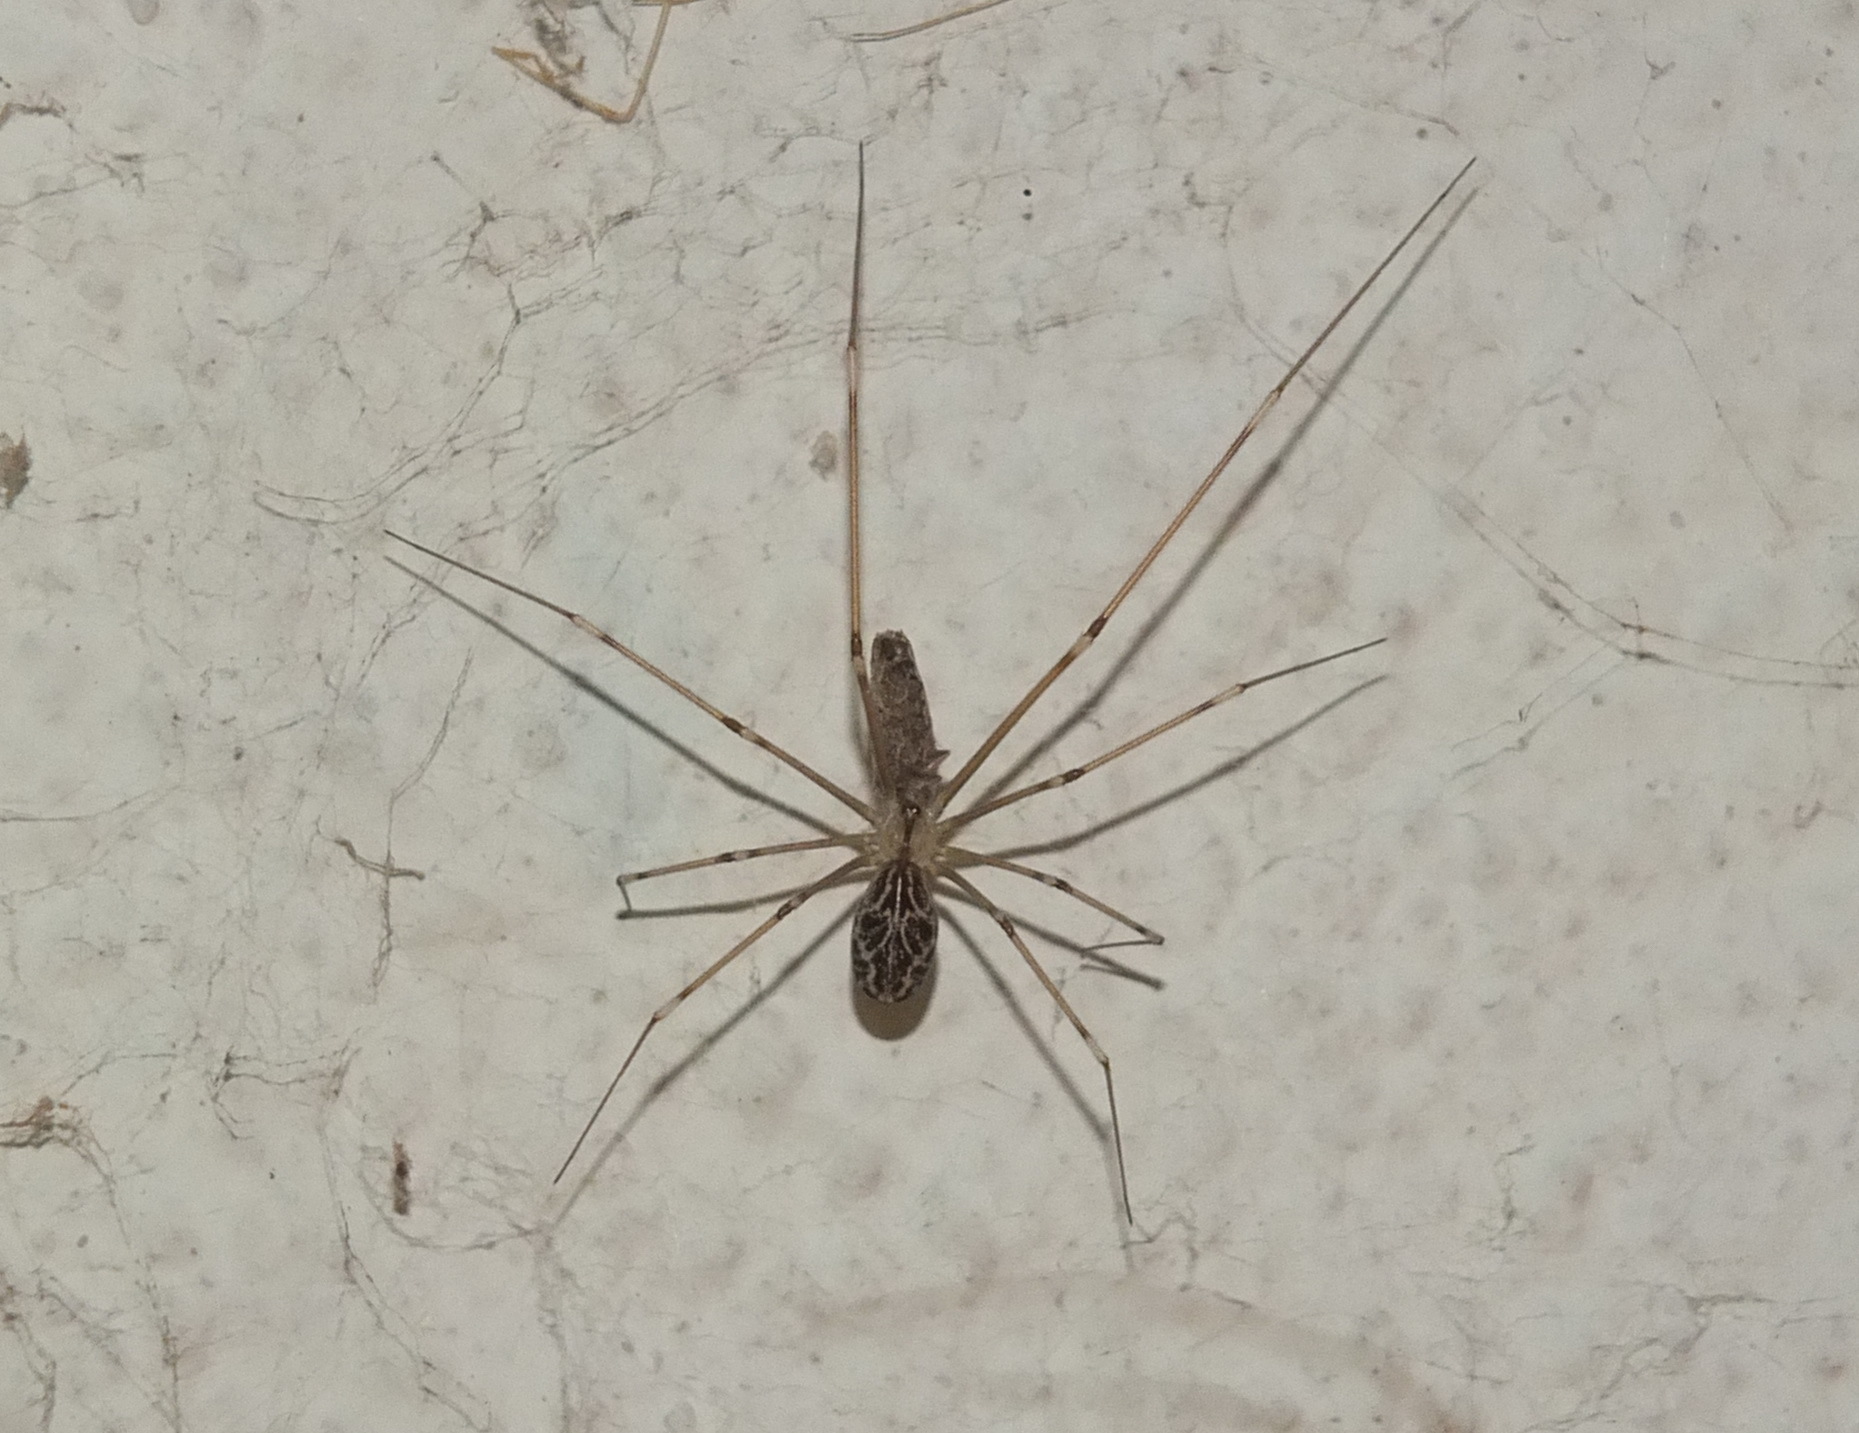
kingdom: Animalia
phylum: Arthropoda
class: Arachnida
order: Araneae
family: Pholcidae
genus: Holocnemus
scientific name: Holocnemus pluchei
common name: Marbled cellar spider
